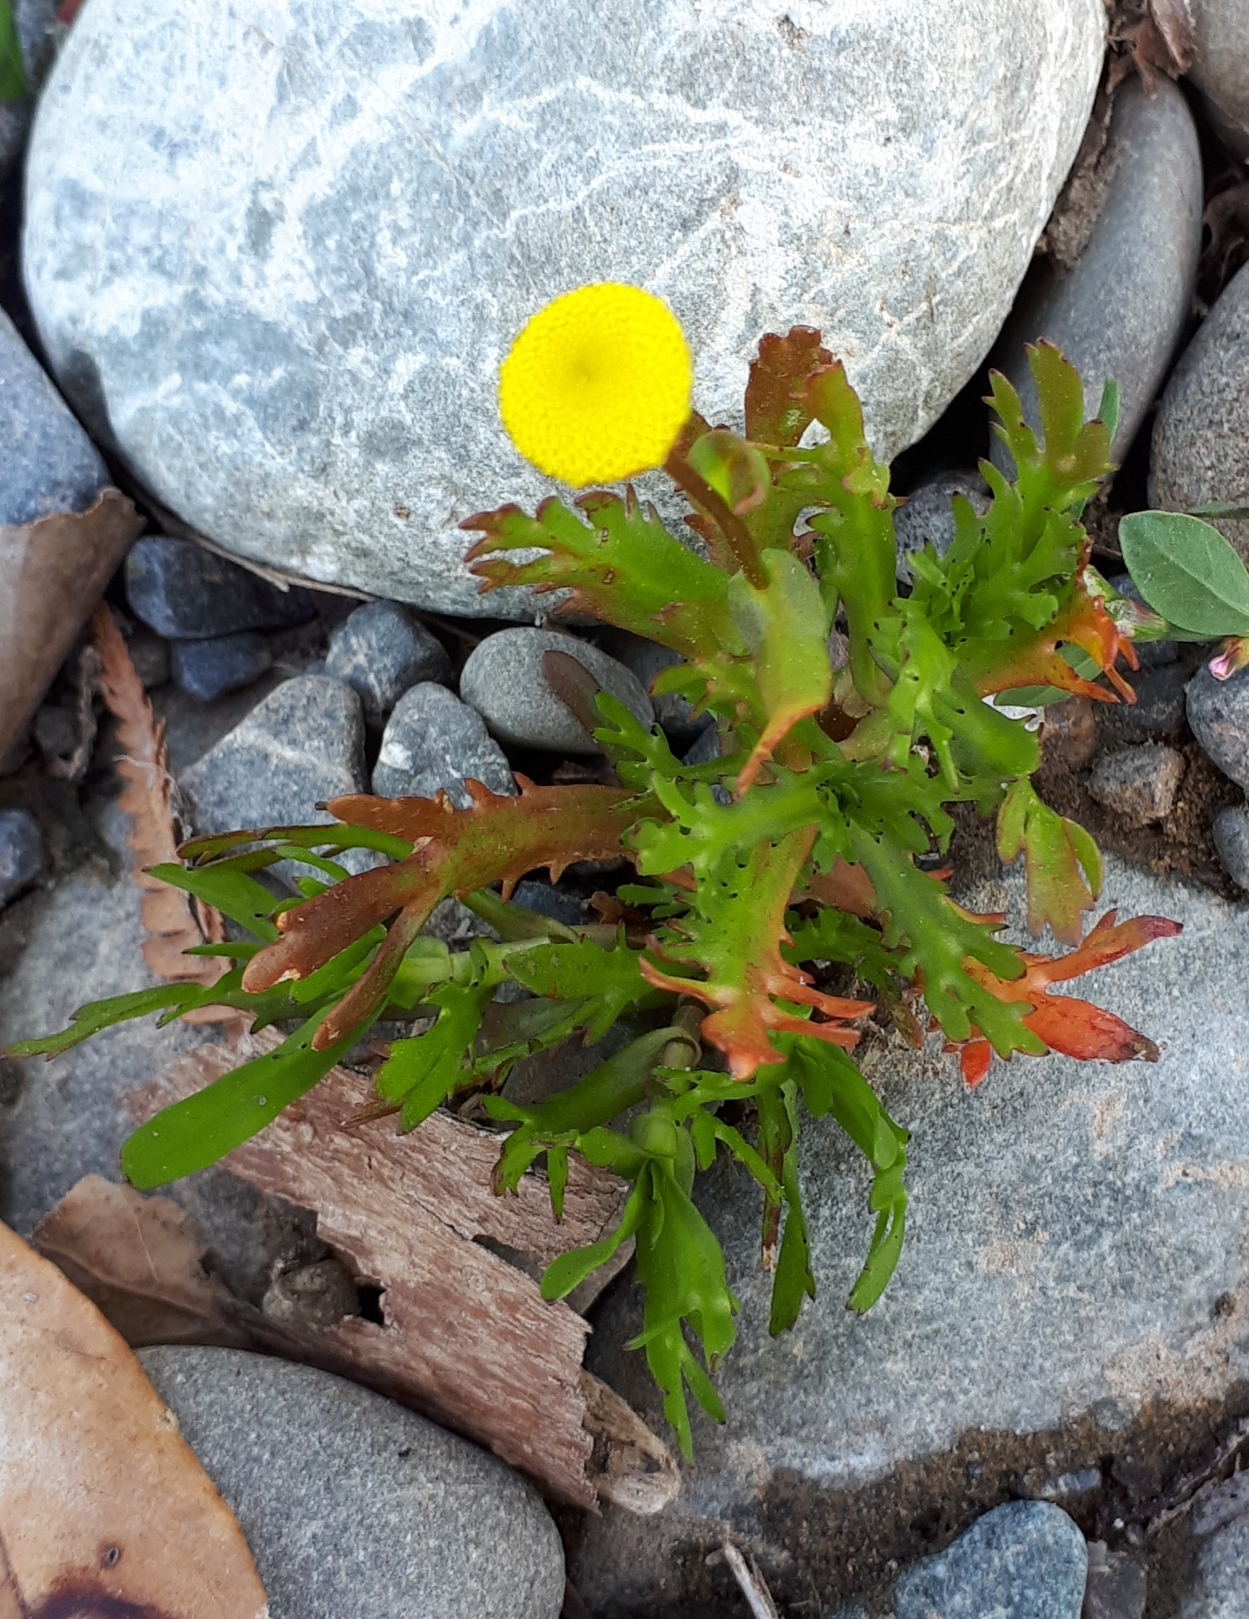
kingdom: Plantae
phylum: Tracheophyta
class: Magnoliopsida
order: Asterales
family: Asteraceae
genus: Cotula
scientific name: Cotula coronopifolia
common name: Buttonweed
